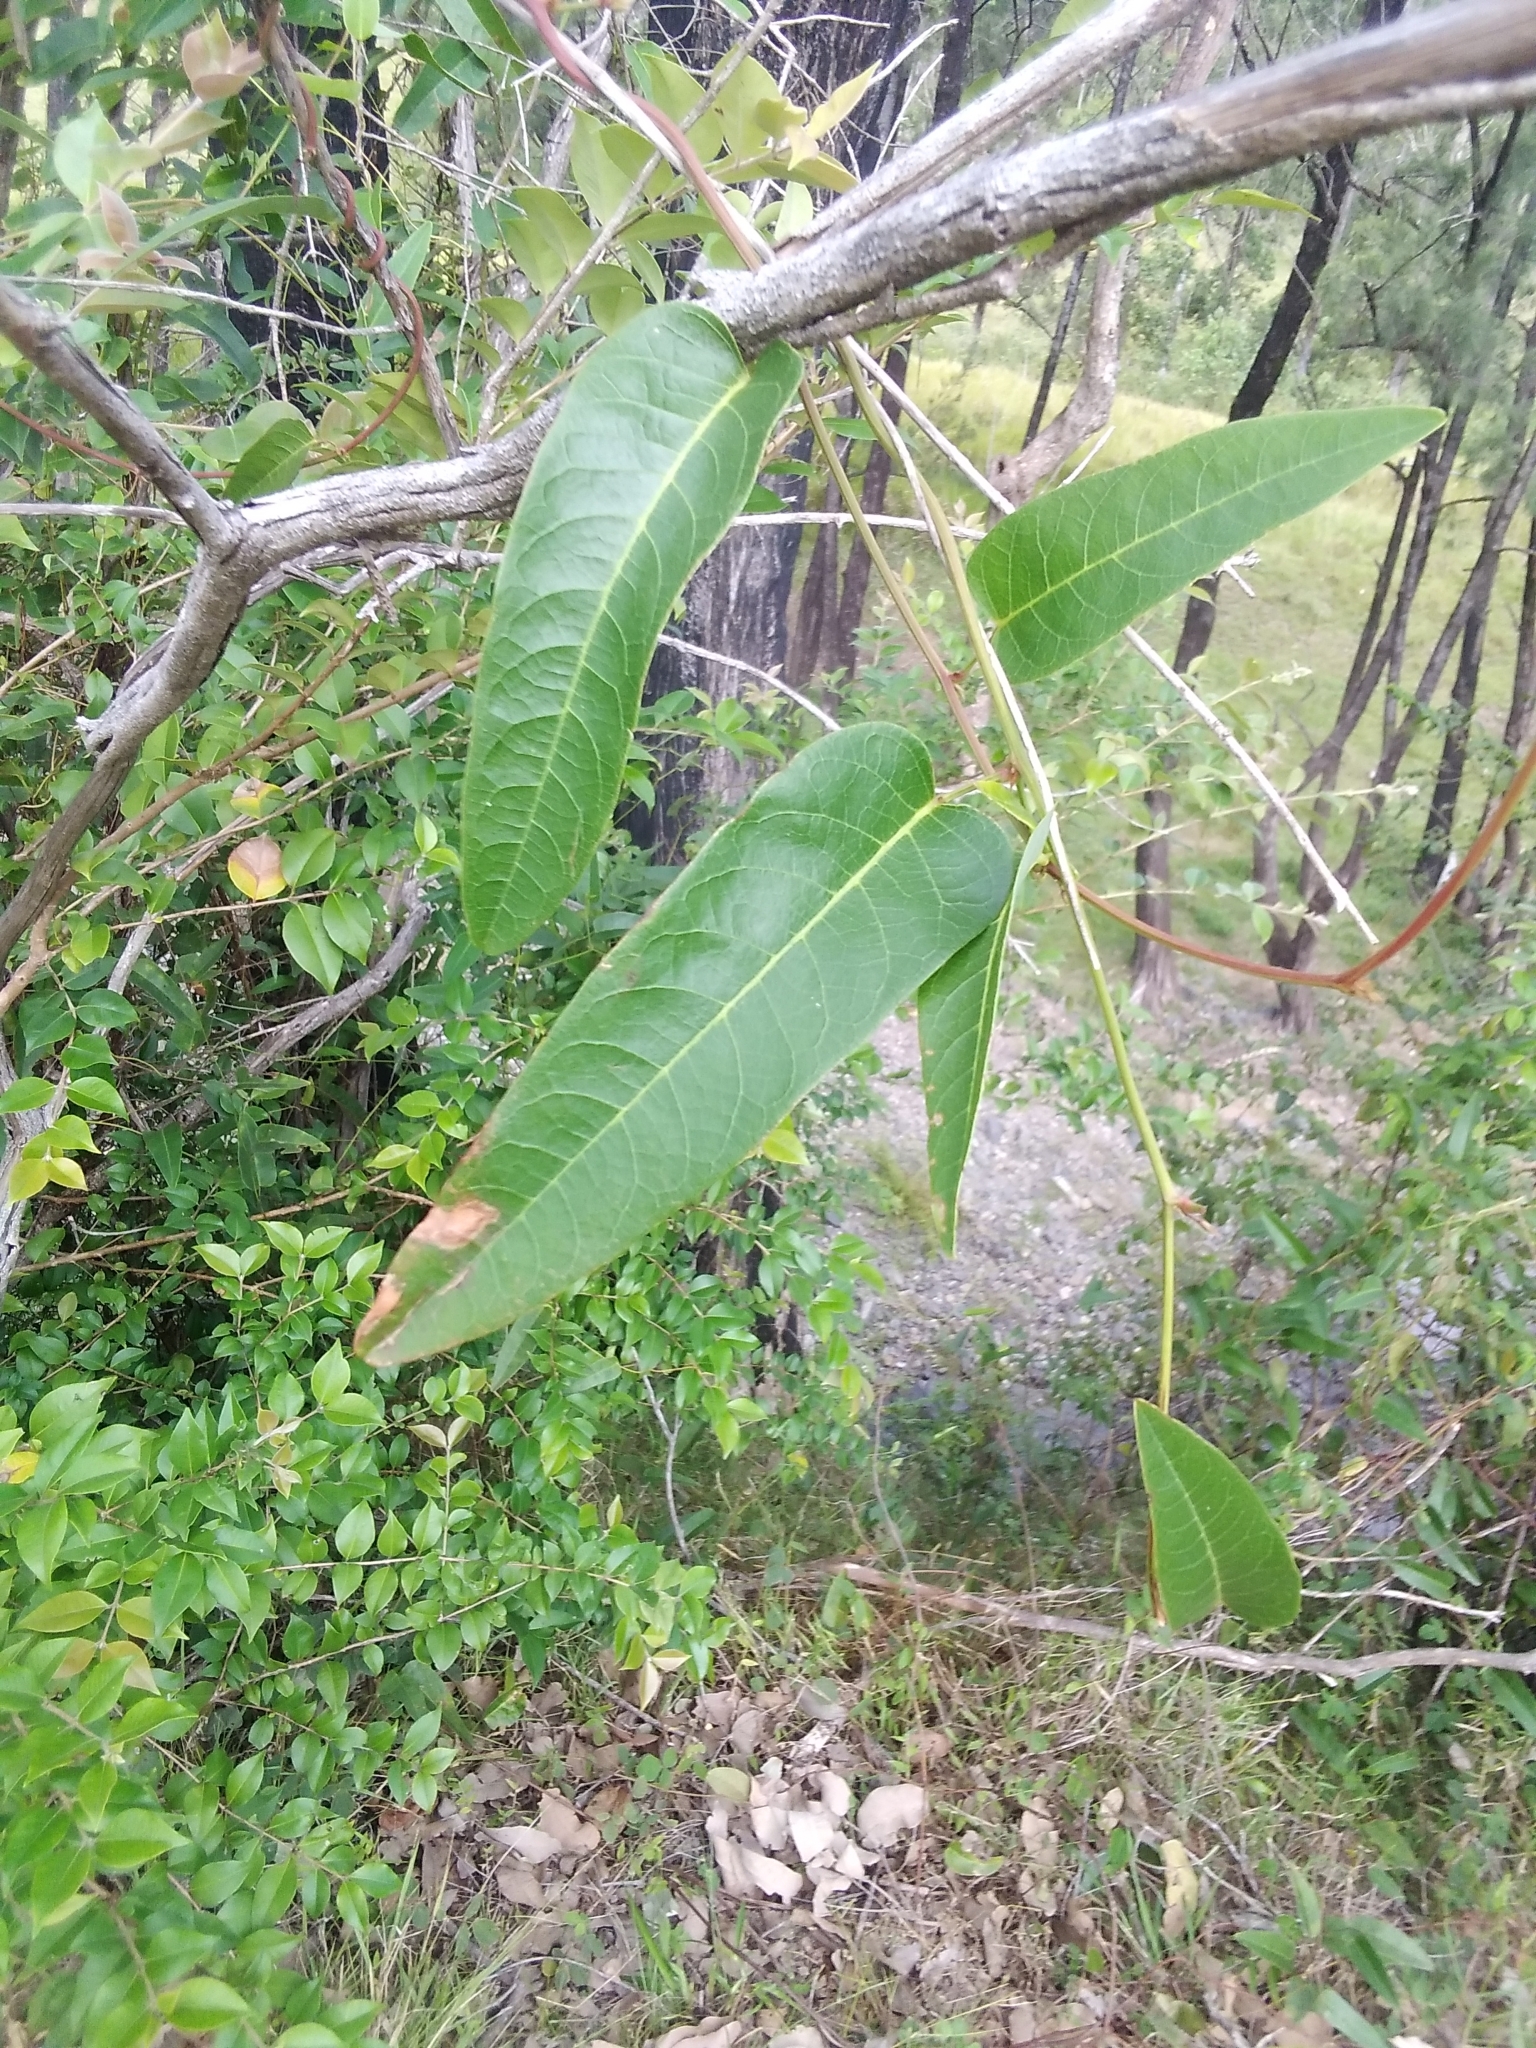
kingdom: Plantae
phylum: Tracheophyta
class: Magnoliopsida
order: Fabales
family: Fabaceae
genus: Hardenbergia
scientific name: Hardenbergia violacea
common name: Coral-pea
